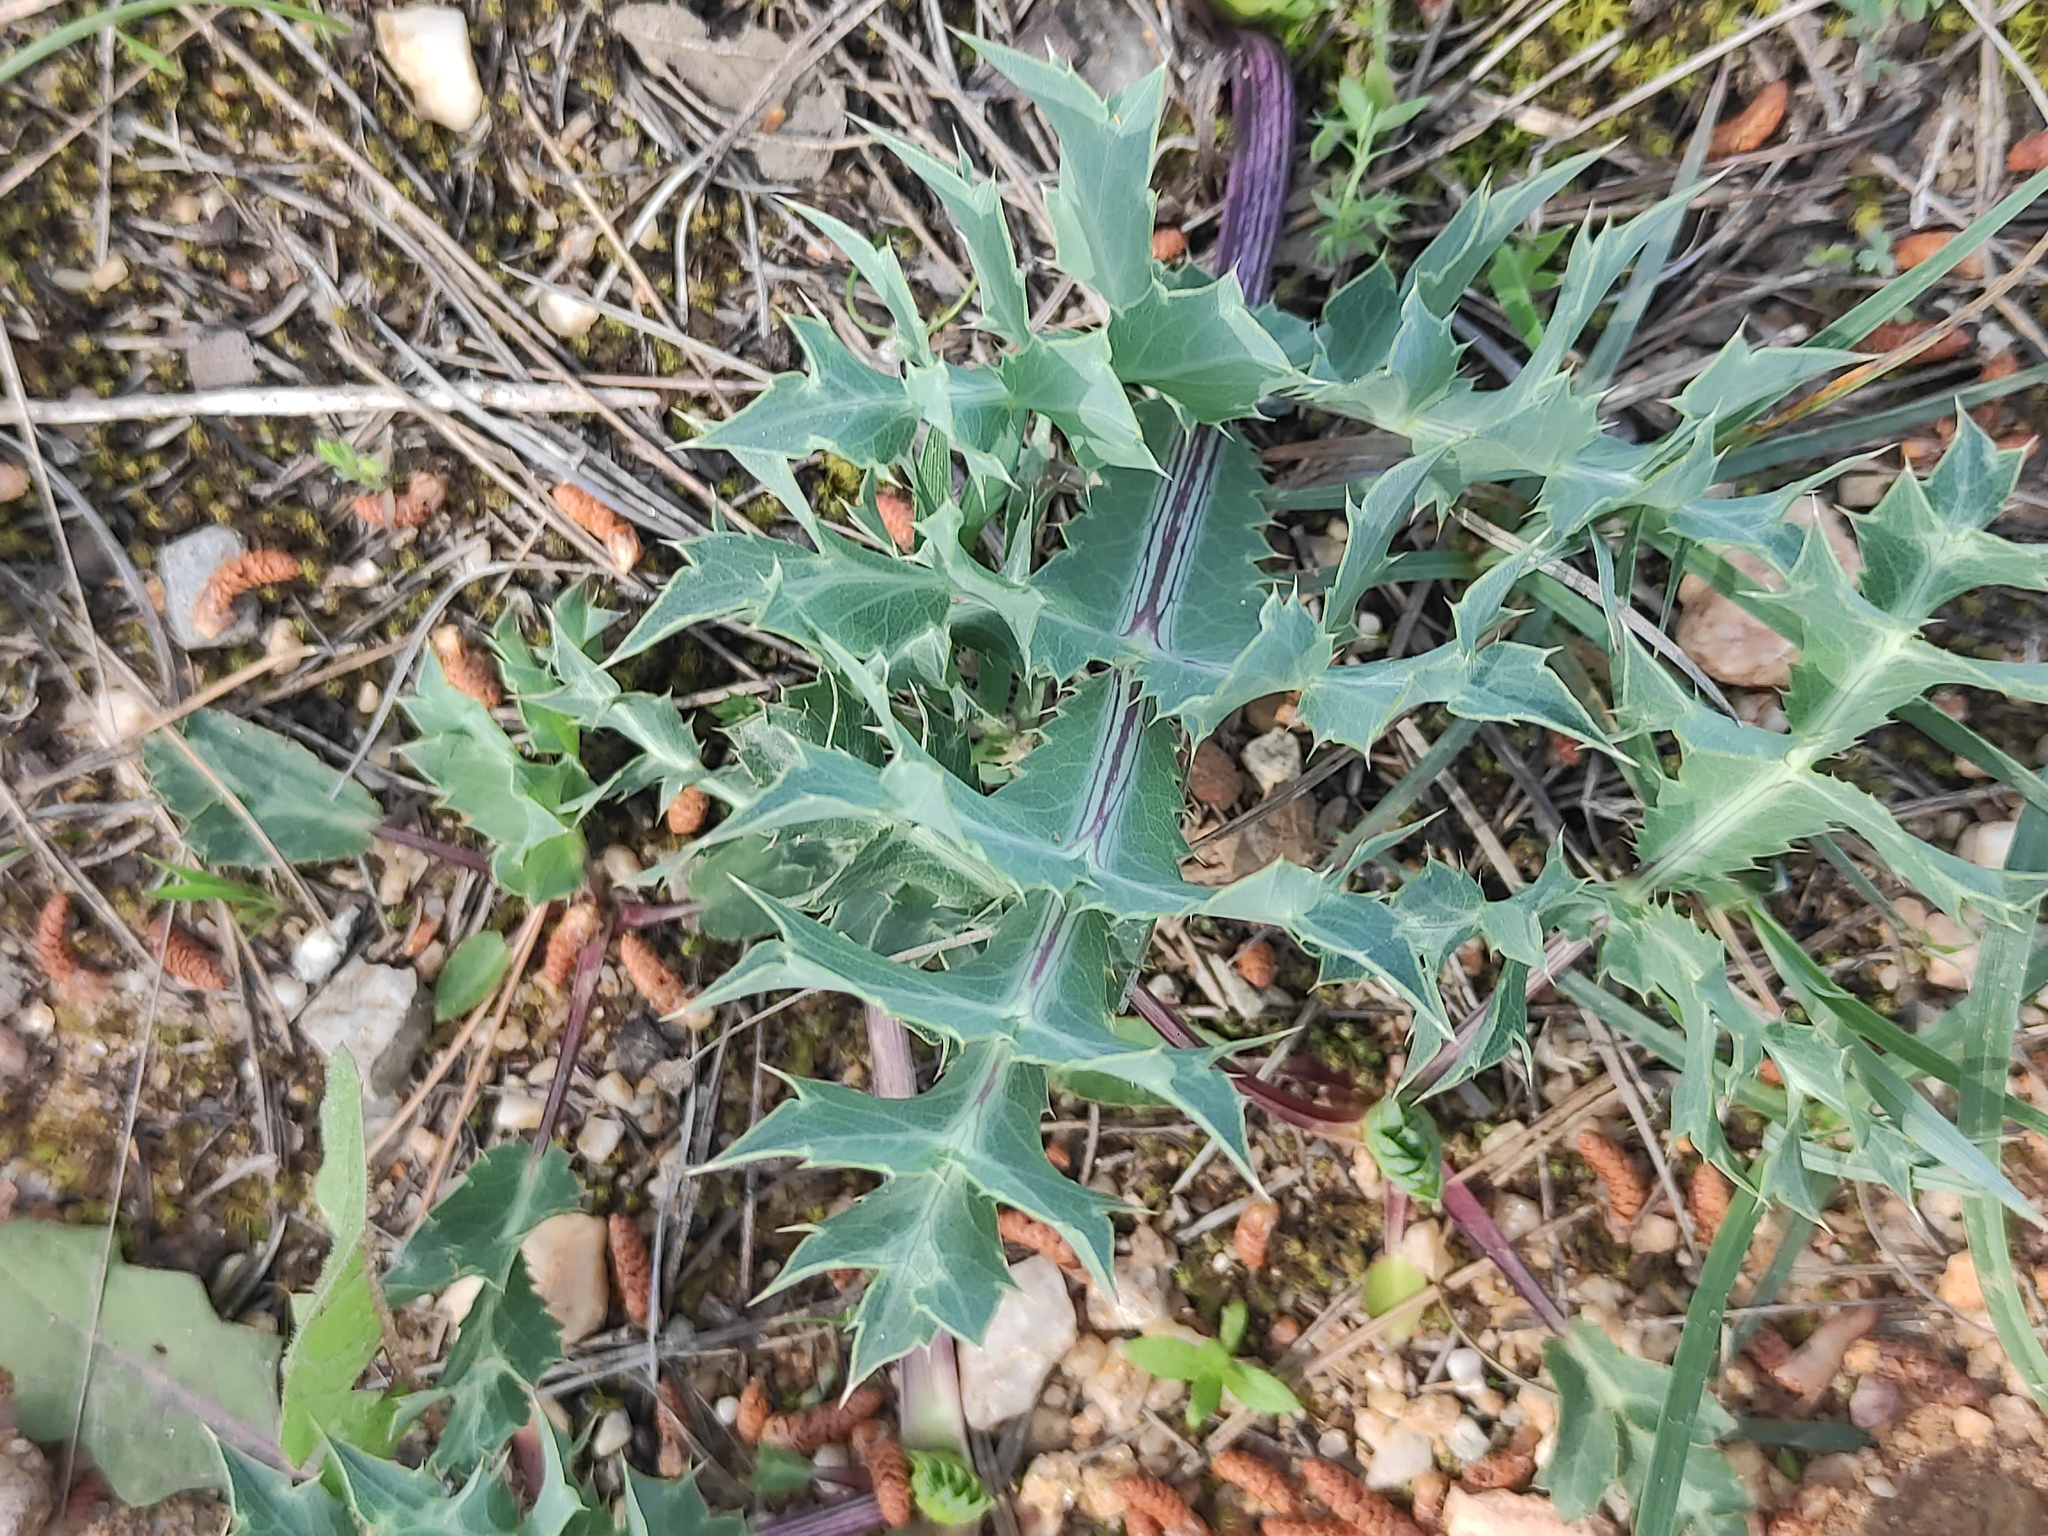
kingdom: Plantae
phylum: Tracheophyta
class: Magnoliopsida
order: Apiales
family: Apiaceae
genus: Eryngium
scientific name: Eryngium campestre
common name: Field eryngo
